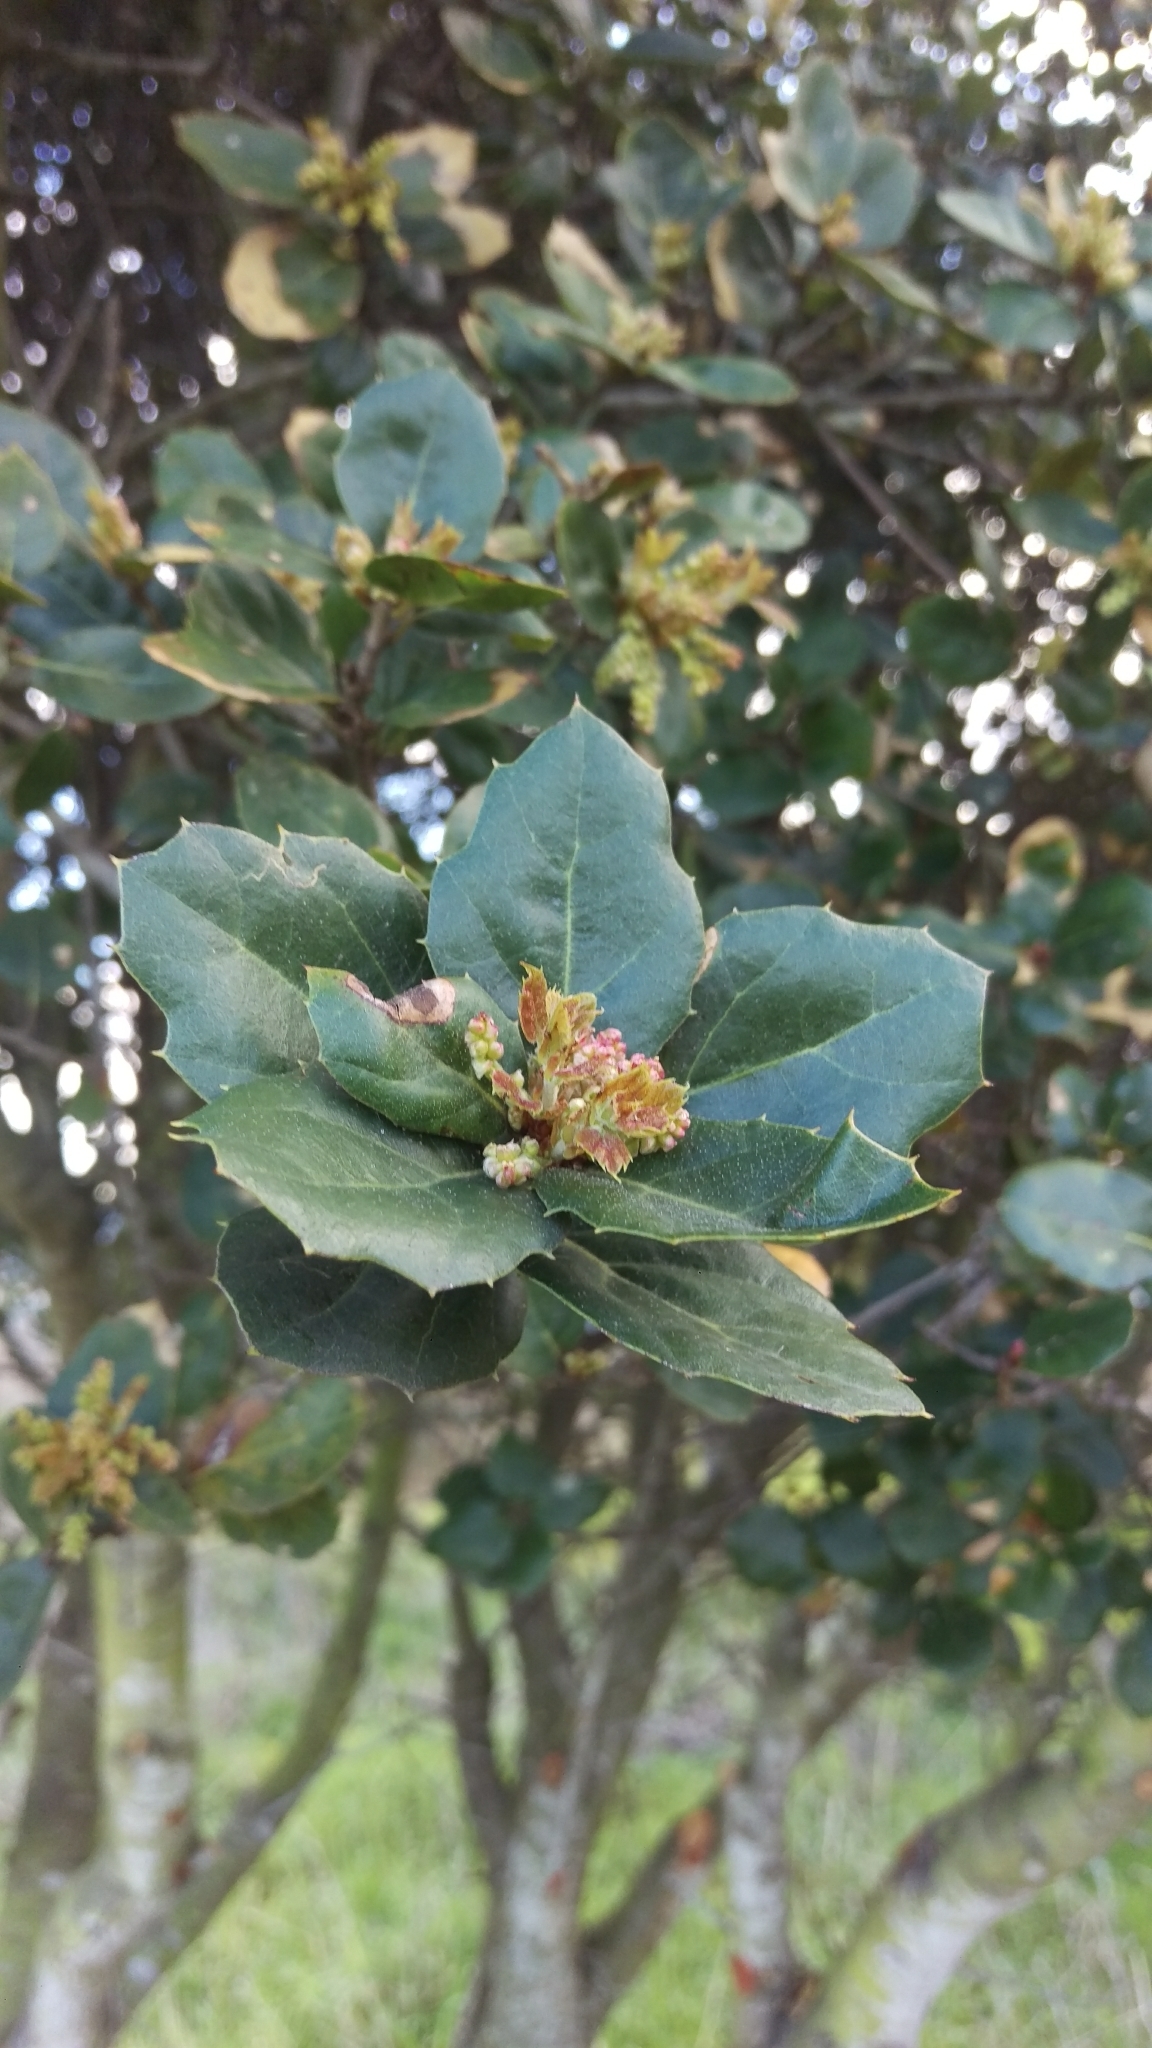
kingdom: Plantae
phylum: Tracheophyta
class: Magnoliopsida
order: Fagales
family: Fagaceae
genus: Quercus
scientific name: Quercus agrifolia
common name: California live oak
